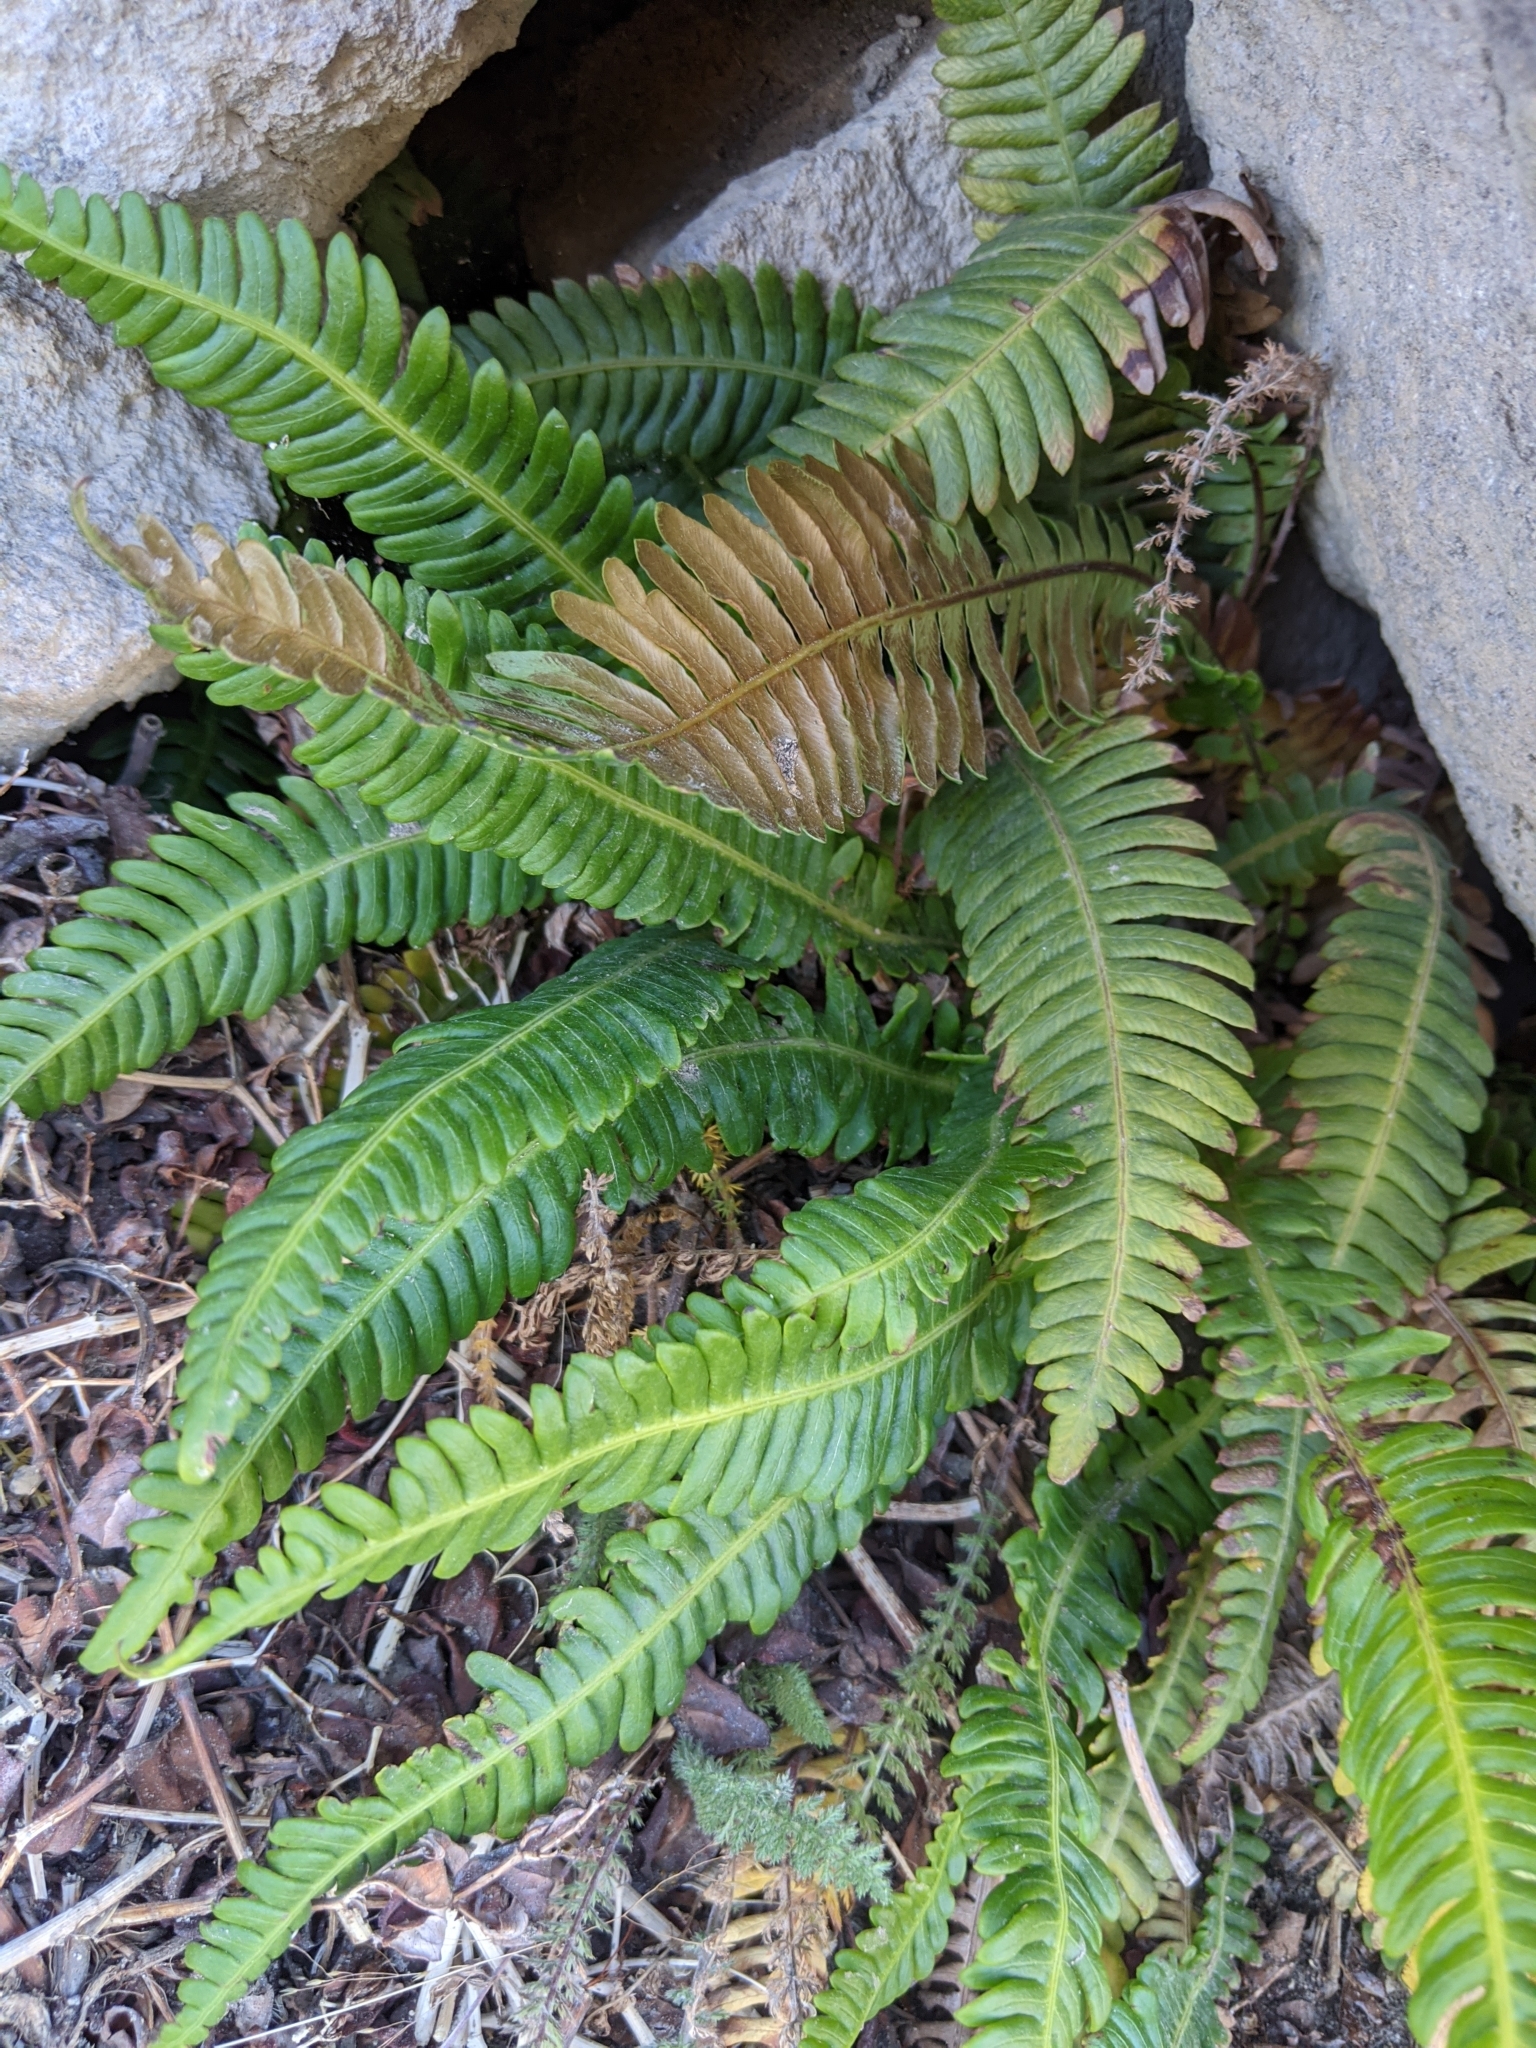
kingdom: Plantae
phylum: Tracheophyta
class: Polypodiopsida
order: Polypodiales
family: Blechnaceae
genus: Struthiopteris
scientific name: Struthiopteris spicant
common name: Deer fern
